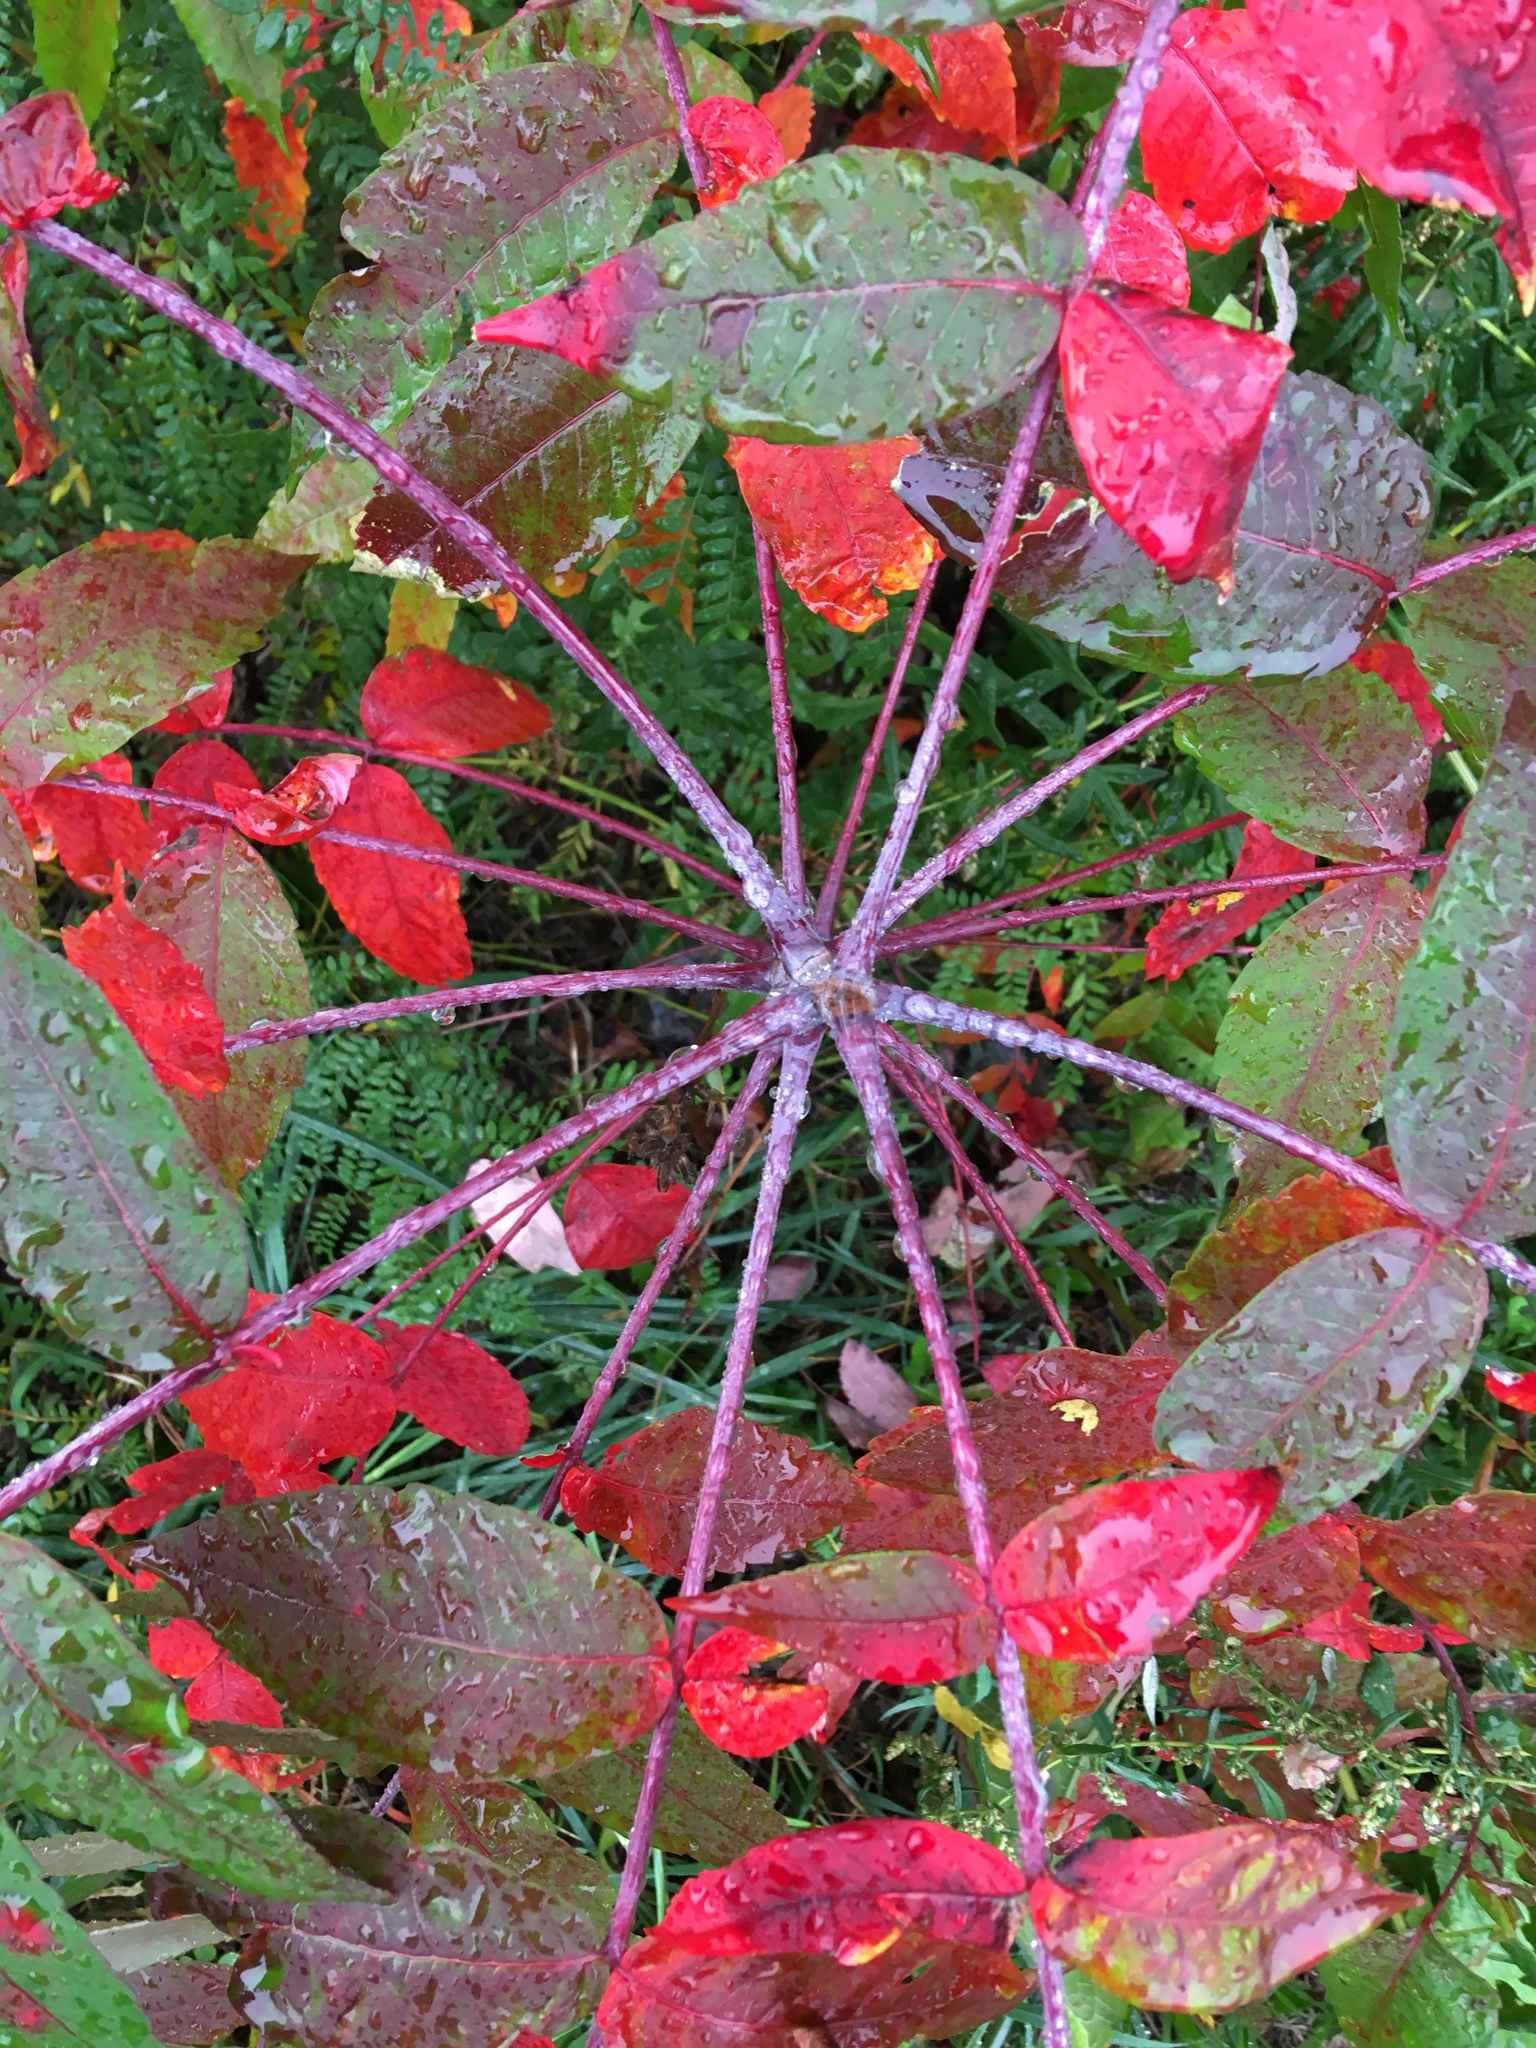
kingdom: Plantae
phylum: Tracheophyta
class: Magnoliopsida
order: Sapindales
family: Anacardiaceae
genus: Rhus
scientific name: Rhus glabra
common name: Scarlet sumac
